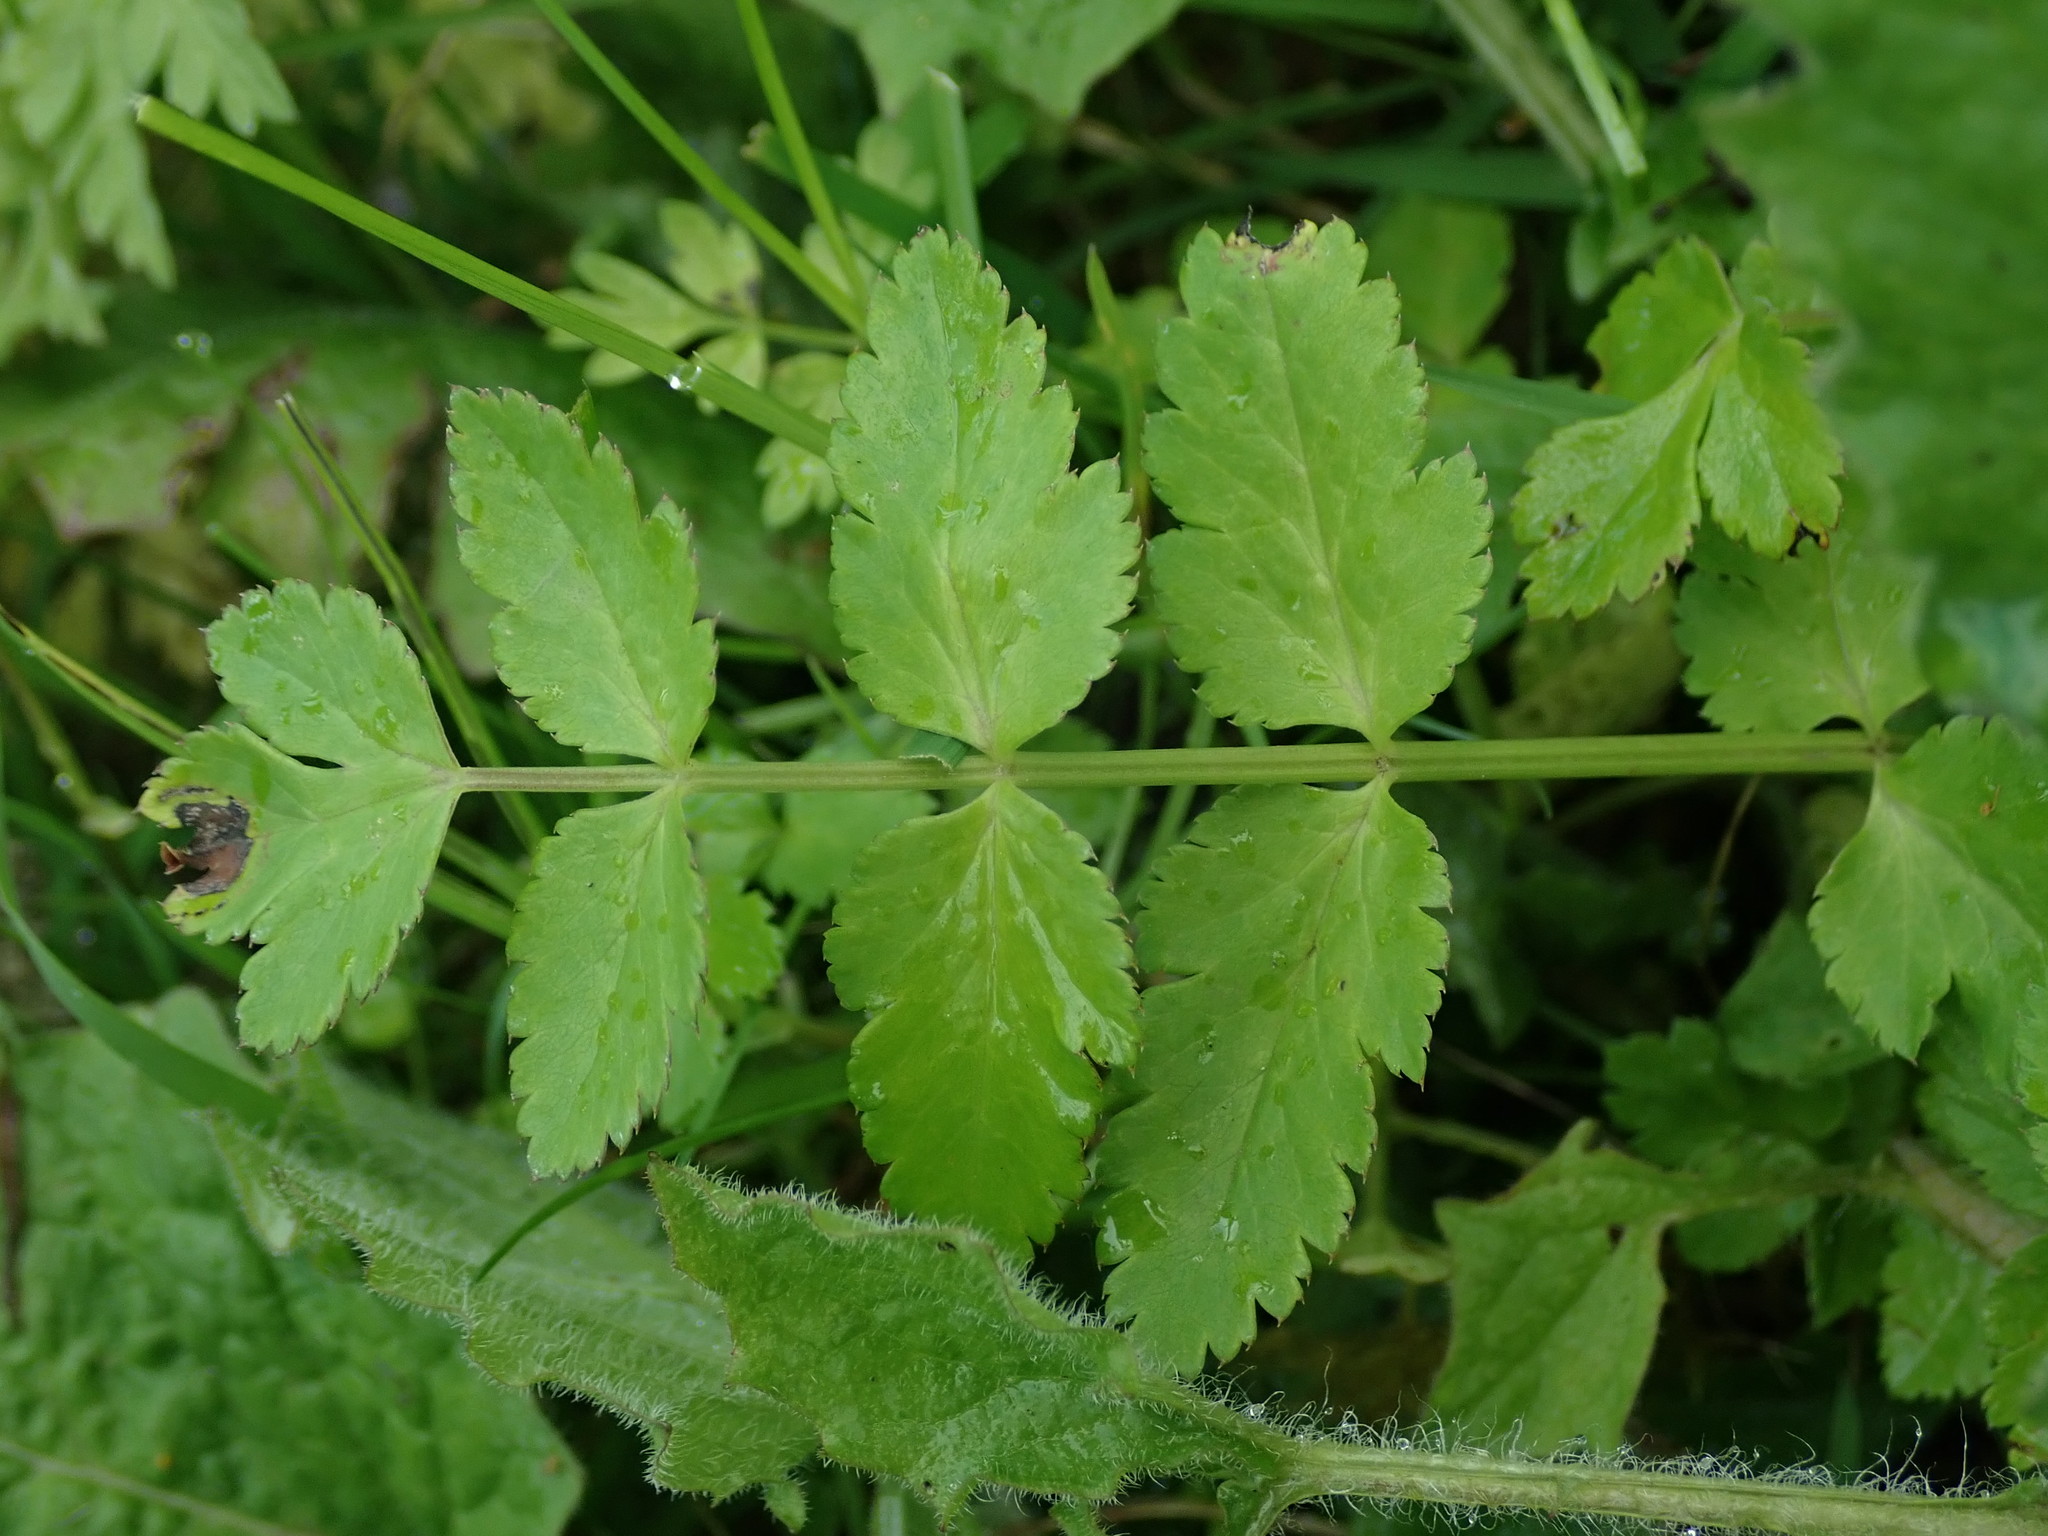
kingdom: Plantae
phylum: Tracheophyta
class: Magnoliopsida
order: Apiales
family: Apiaceae
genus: Helosciadium
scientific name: Helosciadium nodiflorum
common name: Fool's-watercress
